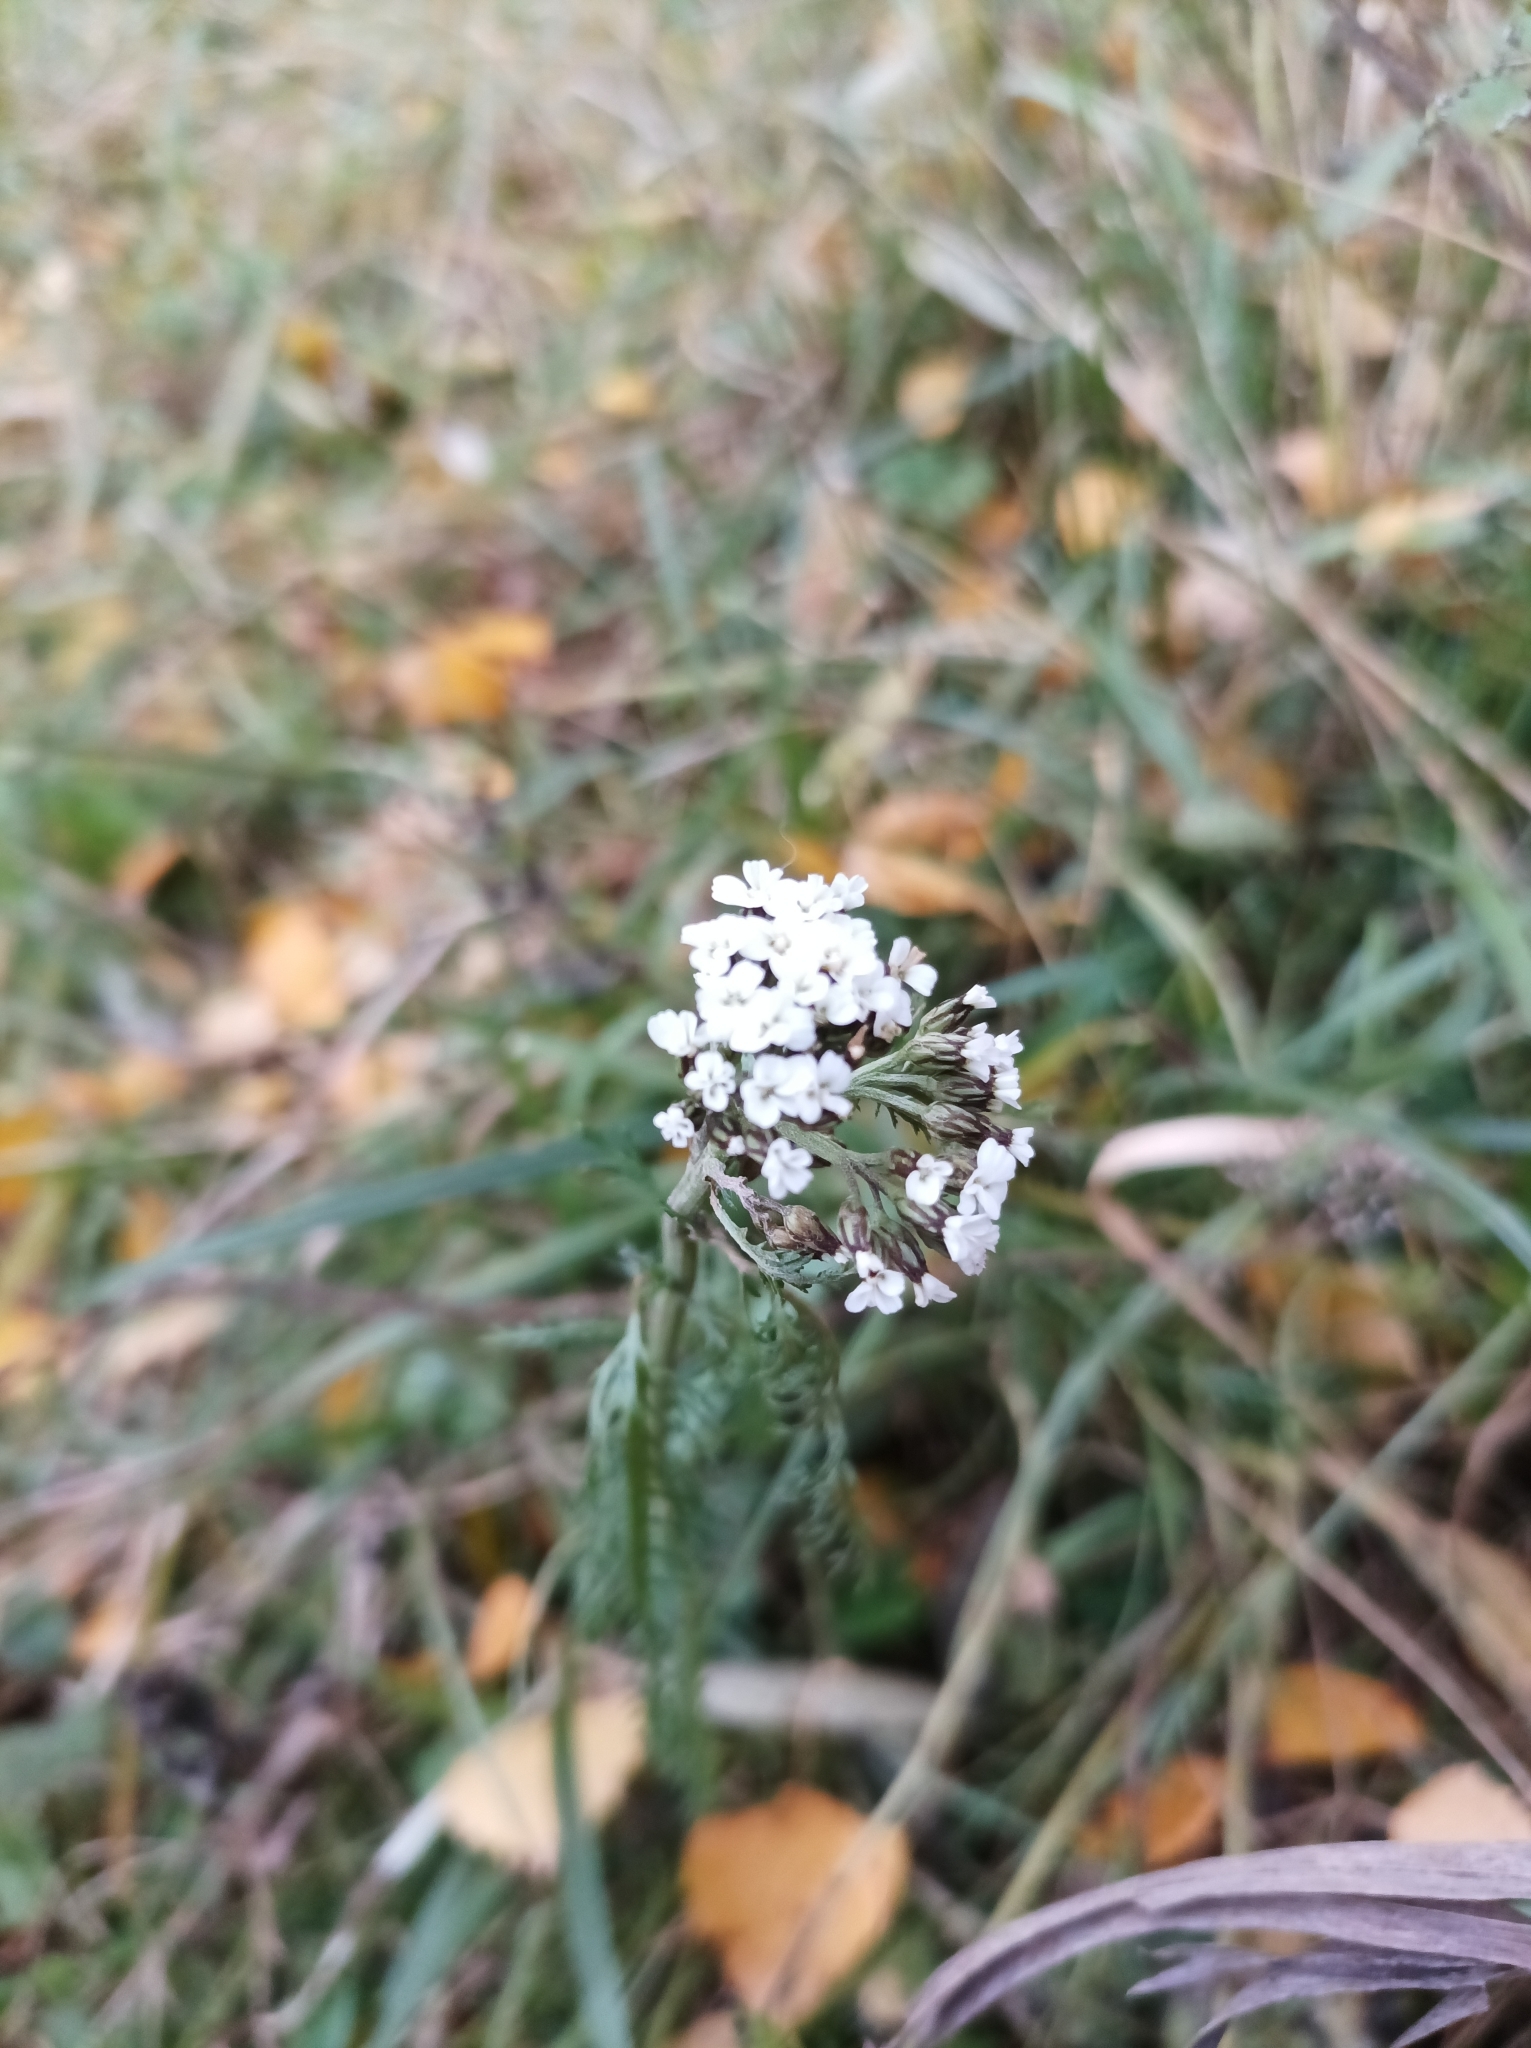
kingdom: Plantae
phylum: Tracheophyta
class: Magnoliopsida
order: Asterales
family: Asteraceae
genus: Achillea
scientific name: Achillea millefolium
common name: Yarrow
